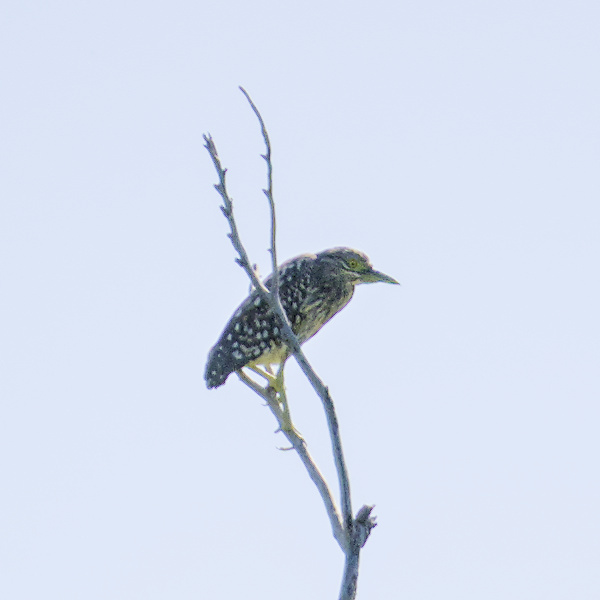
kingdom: Animalia
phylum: Chordata
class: Aves
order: Pelecaniformes
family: Ardeidae
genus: Nycticorax
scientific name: Nycticorax caledonicus
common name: Rufous night-heron
